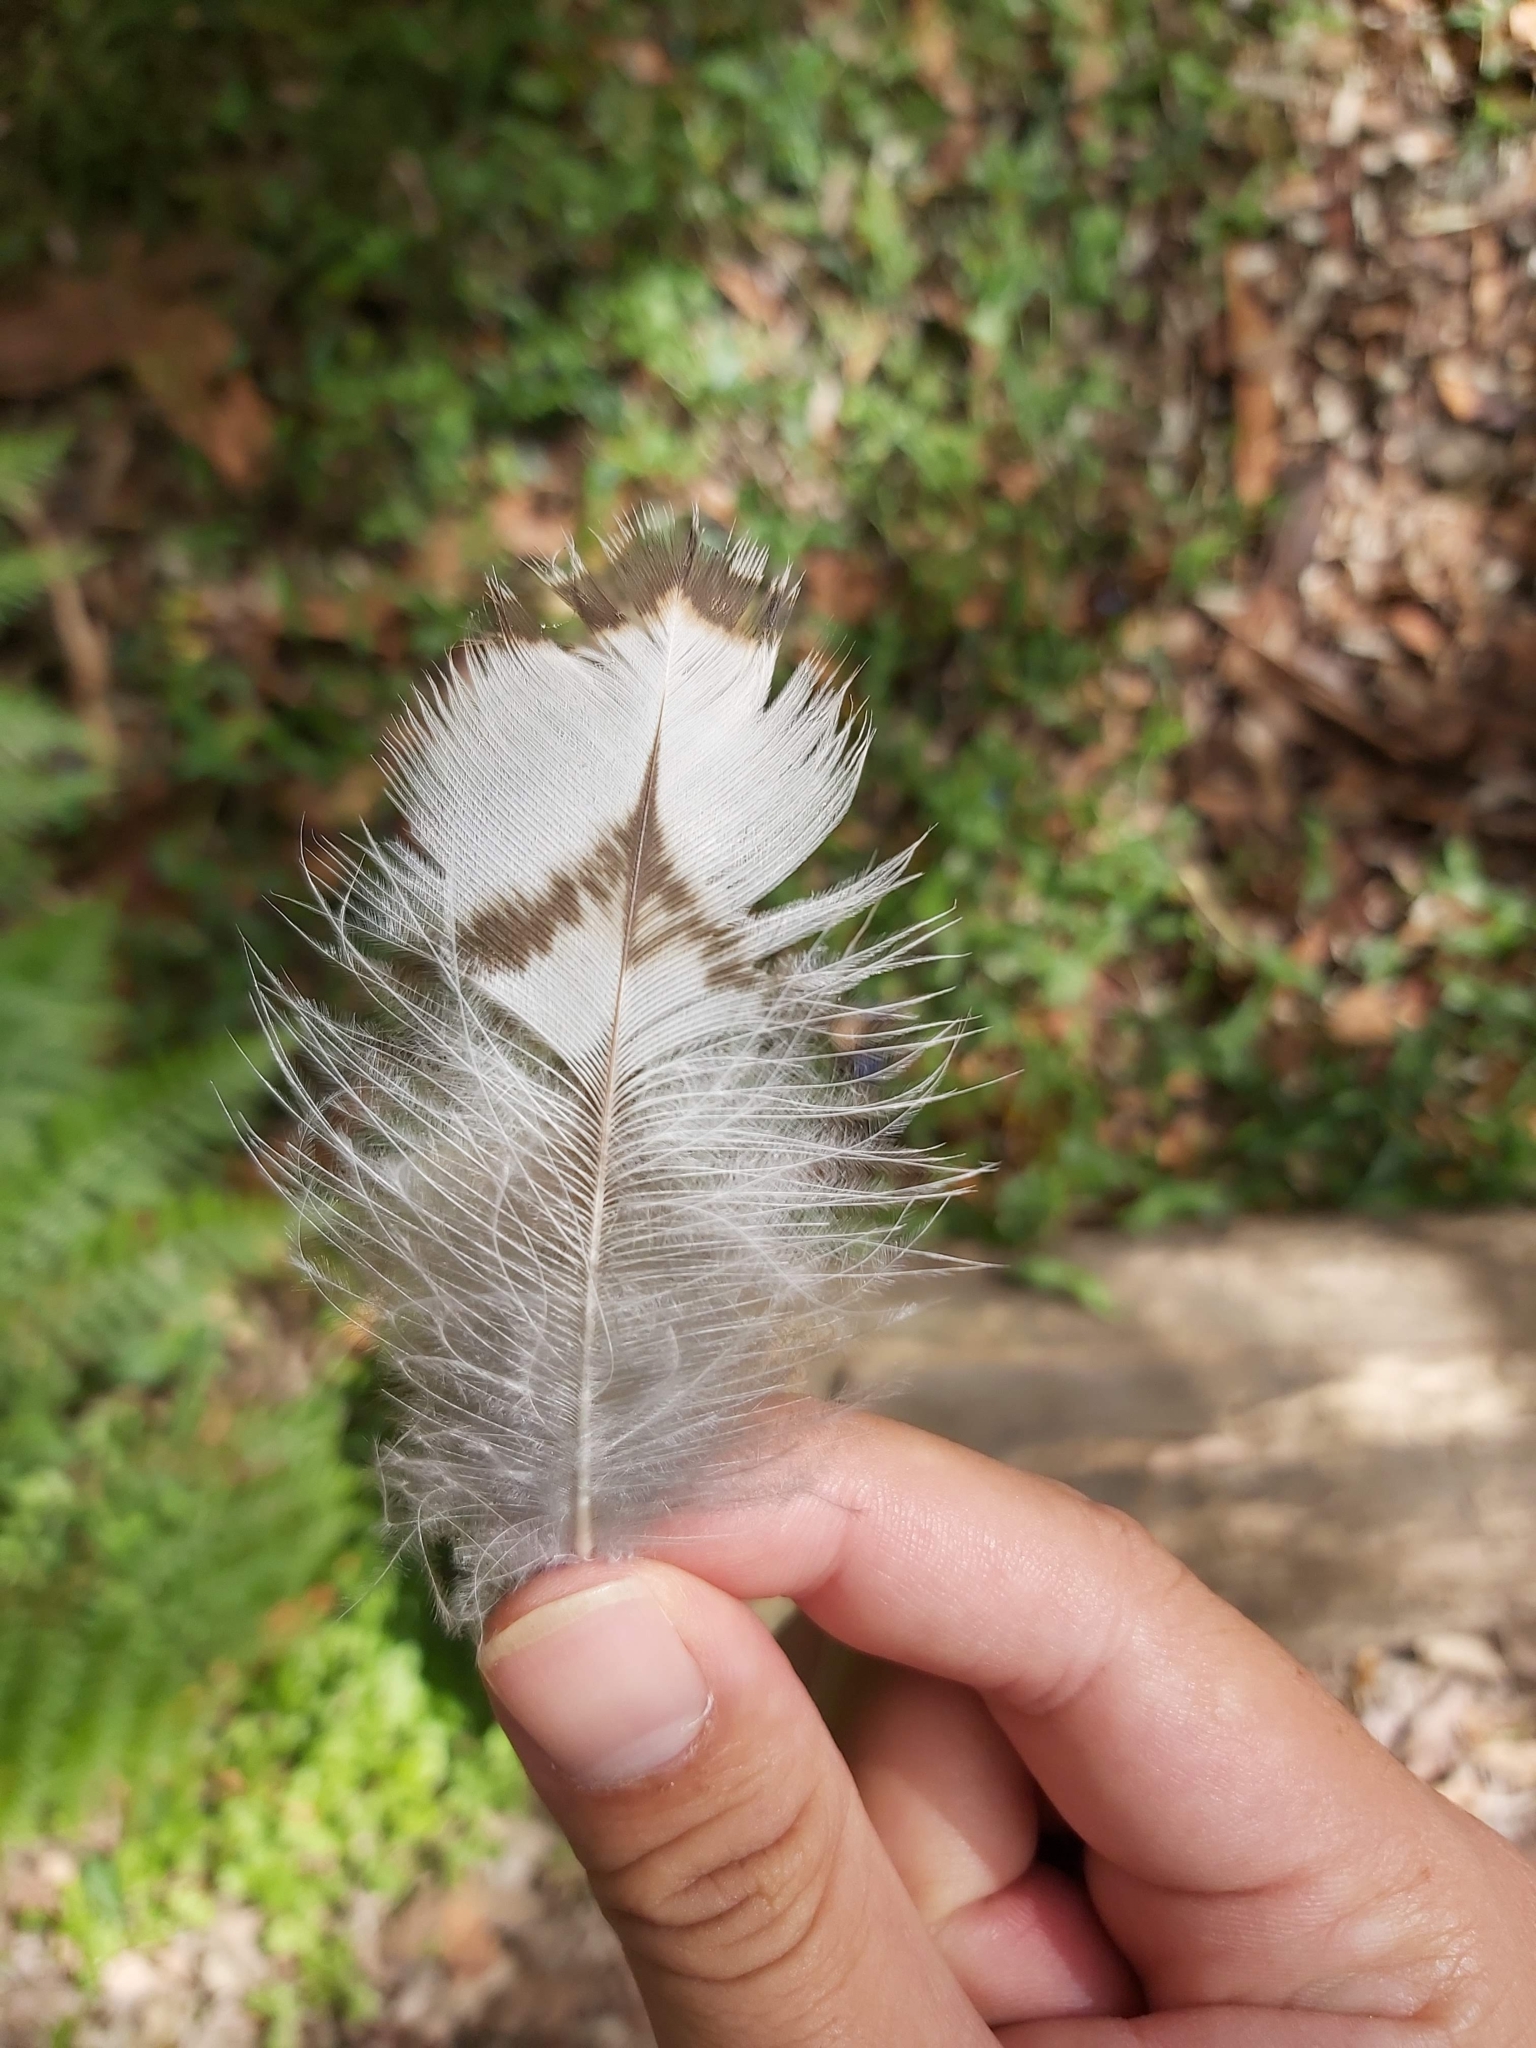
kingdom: Animalia
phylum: Chordata
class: Aves
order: Strigiformes
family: Strigidae
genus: Ninox
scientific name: Ninox strenua
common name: Powerful owl
